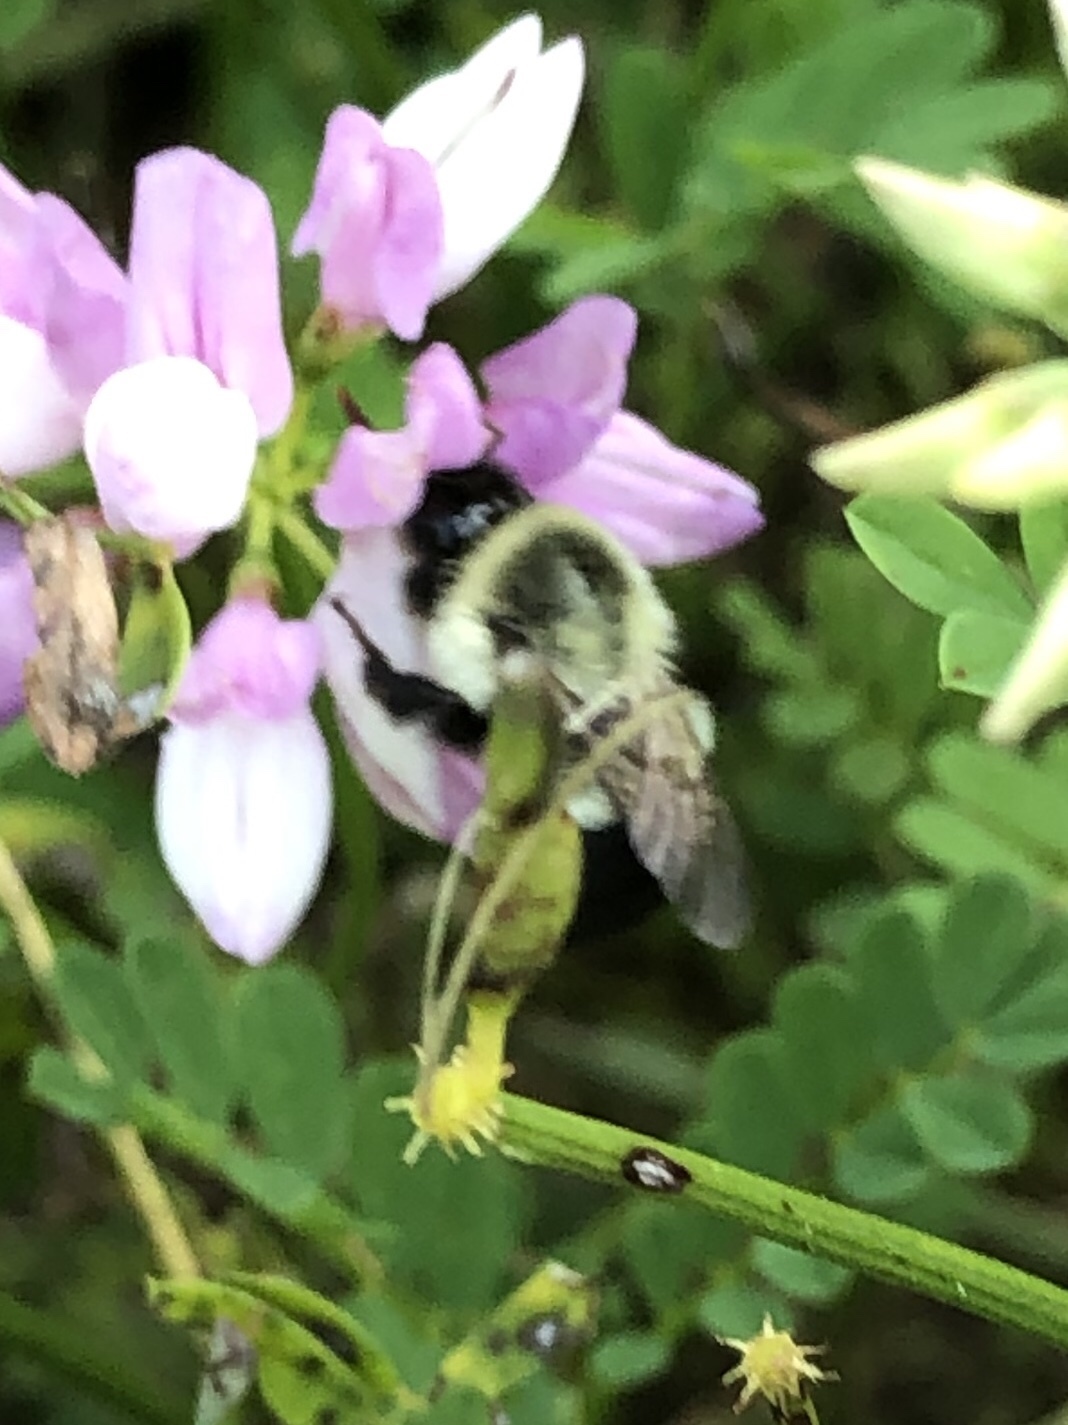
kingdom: Animalia
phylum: Arthropoda
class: Insecta
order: Hymenoptera
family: Apidae
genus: Bombus
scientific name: Bombus impatiens
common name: Common eastern bumble bee
